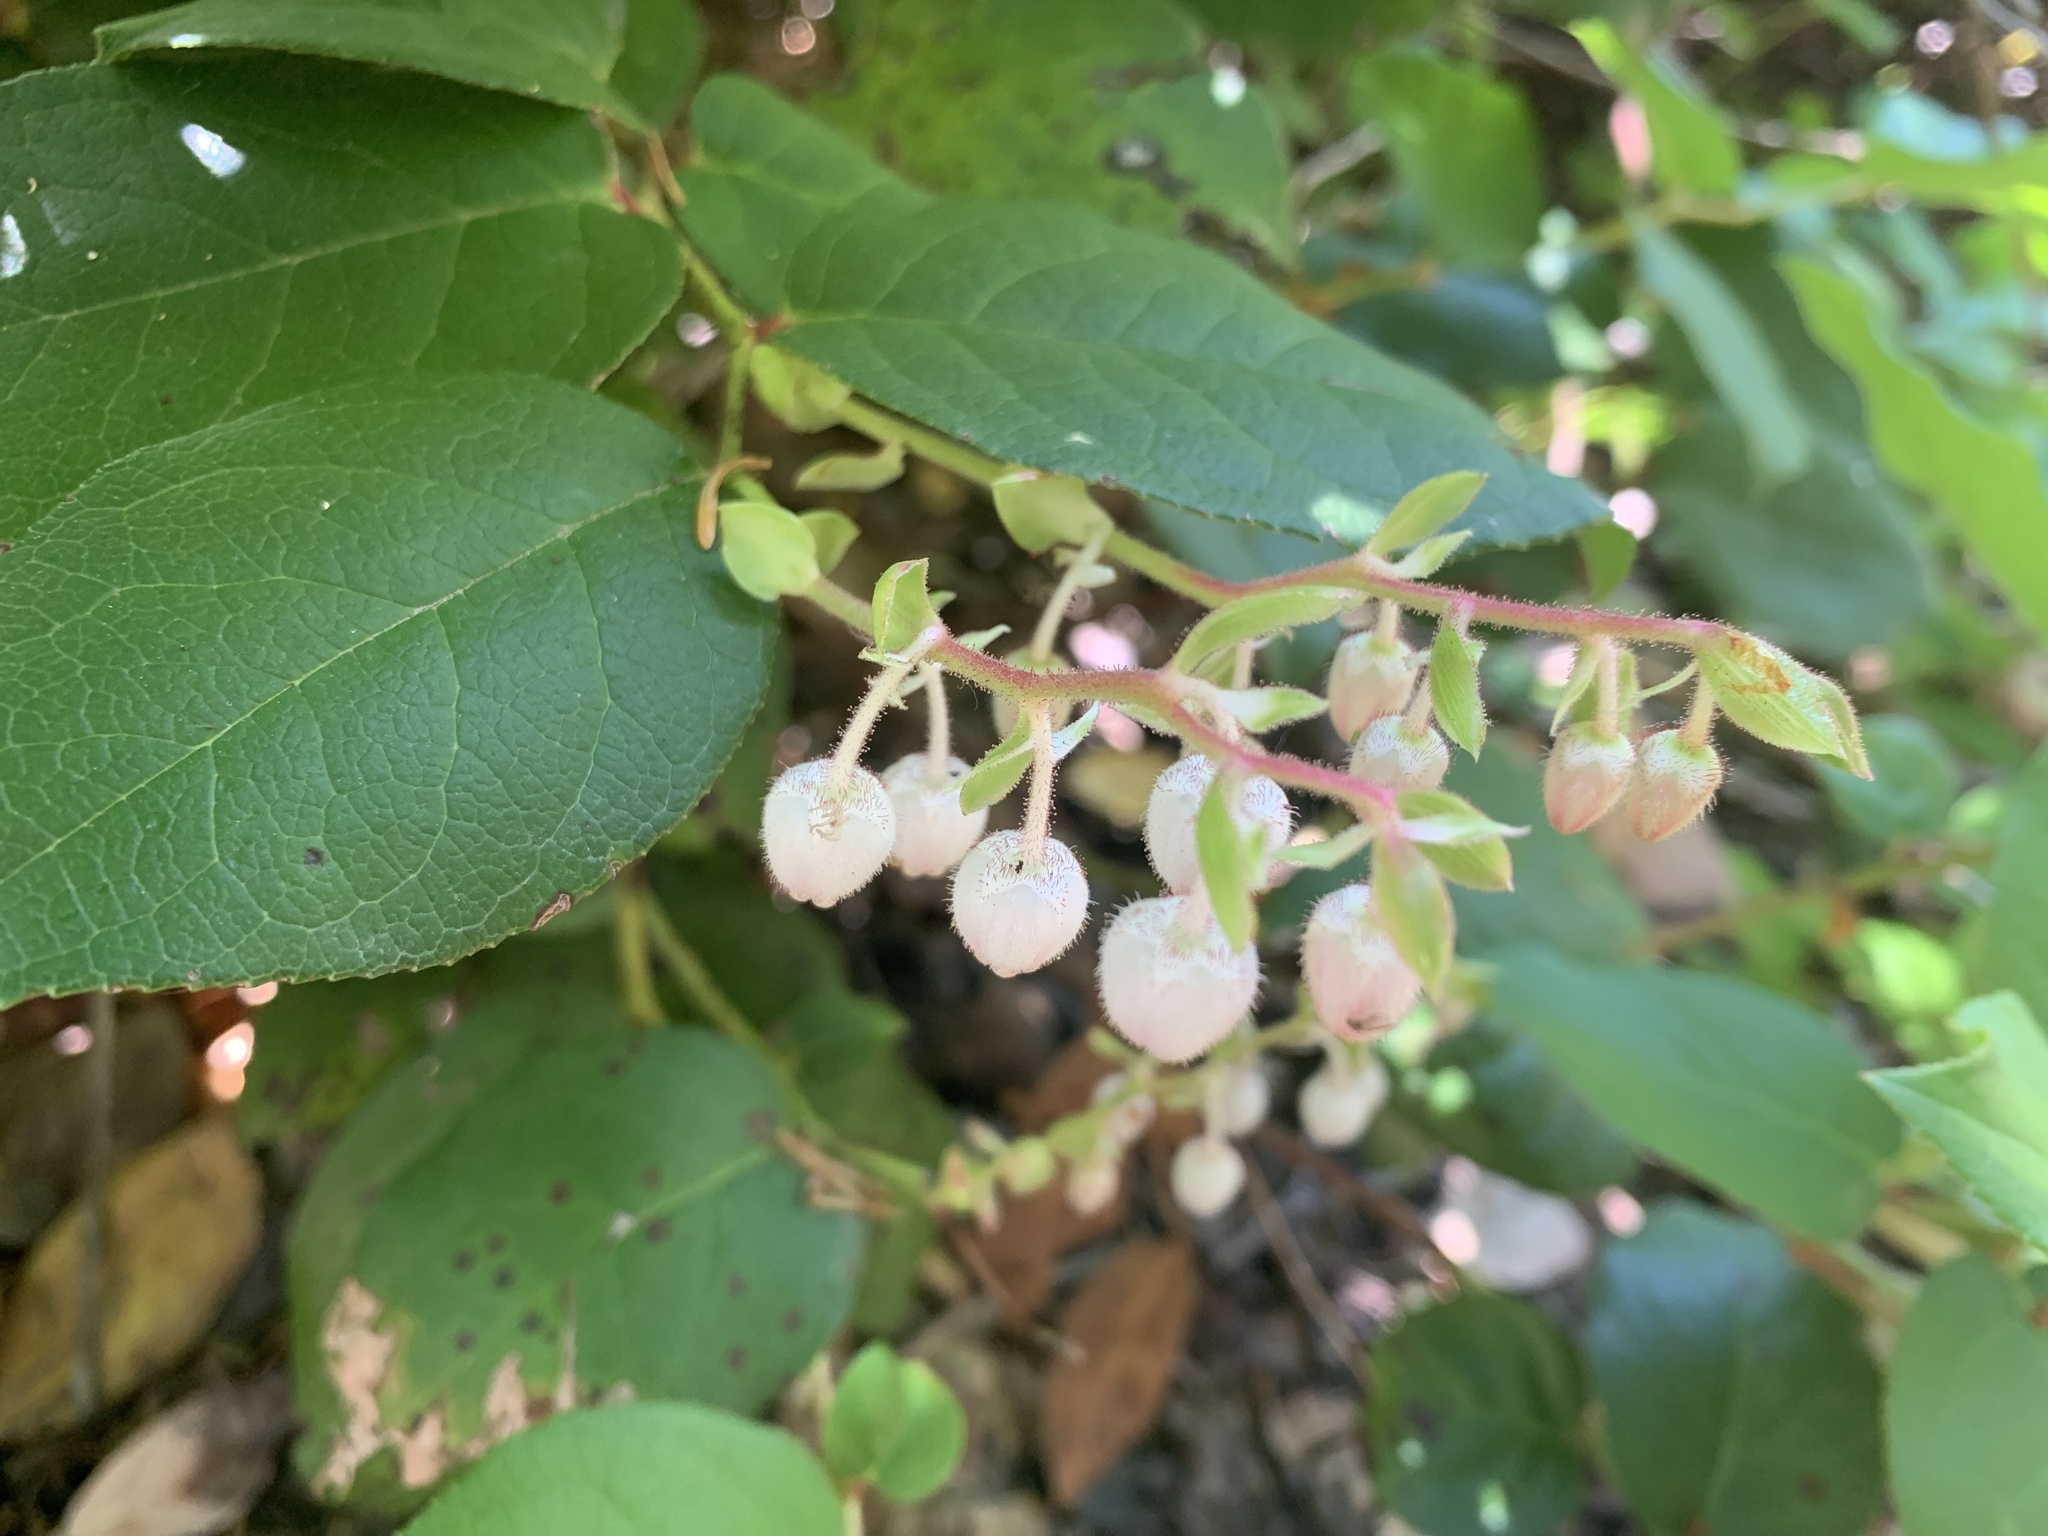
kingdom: Plantae
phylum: Tracheophyta
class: Magnoliopsida
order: Ericales
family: Ericaceae
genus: Gaultheria
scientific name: Gaultheria shallon
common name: Shallon
